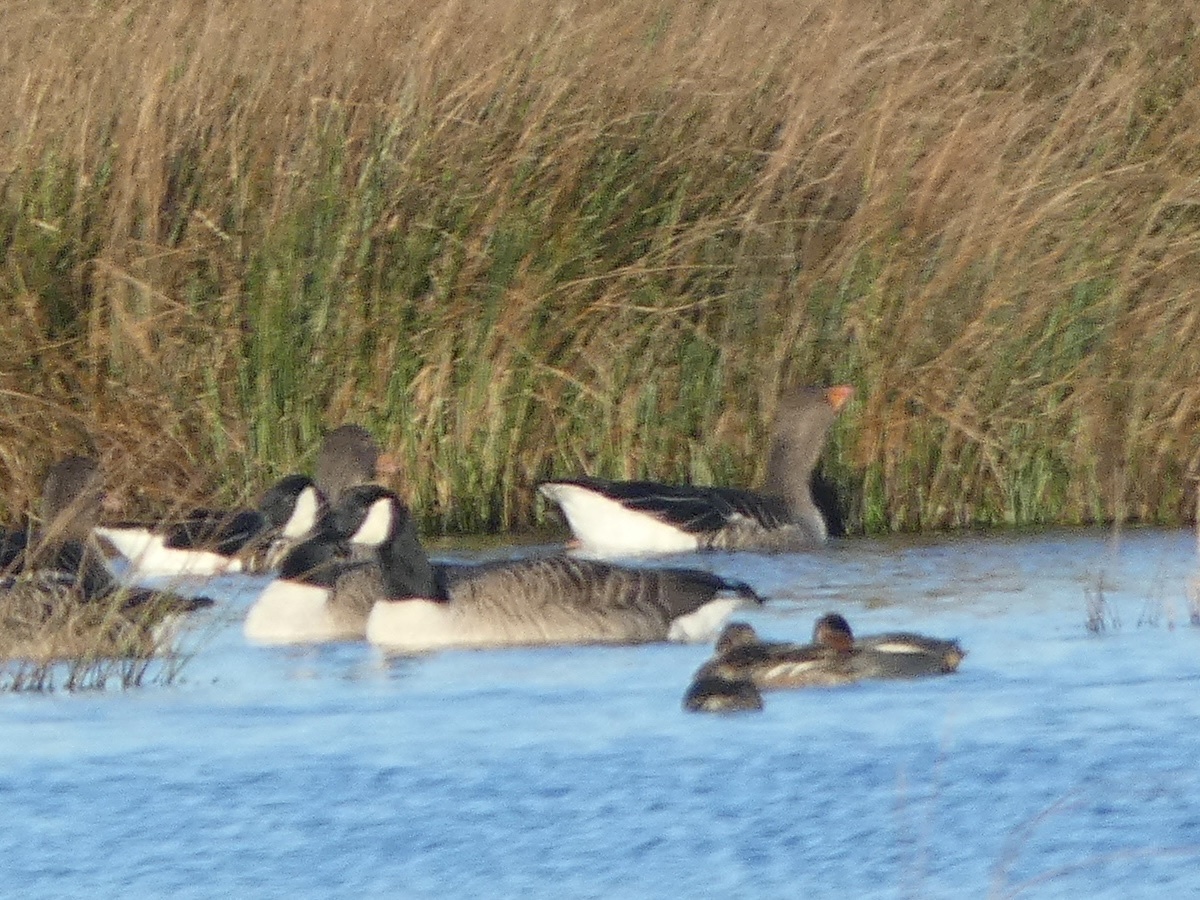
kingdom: Animalia
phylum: Chordata
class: Aves
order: Anseriformes
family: Anatidae
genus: Anser
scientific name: Anser anser
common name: Greylag goose
